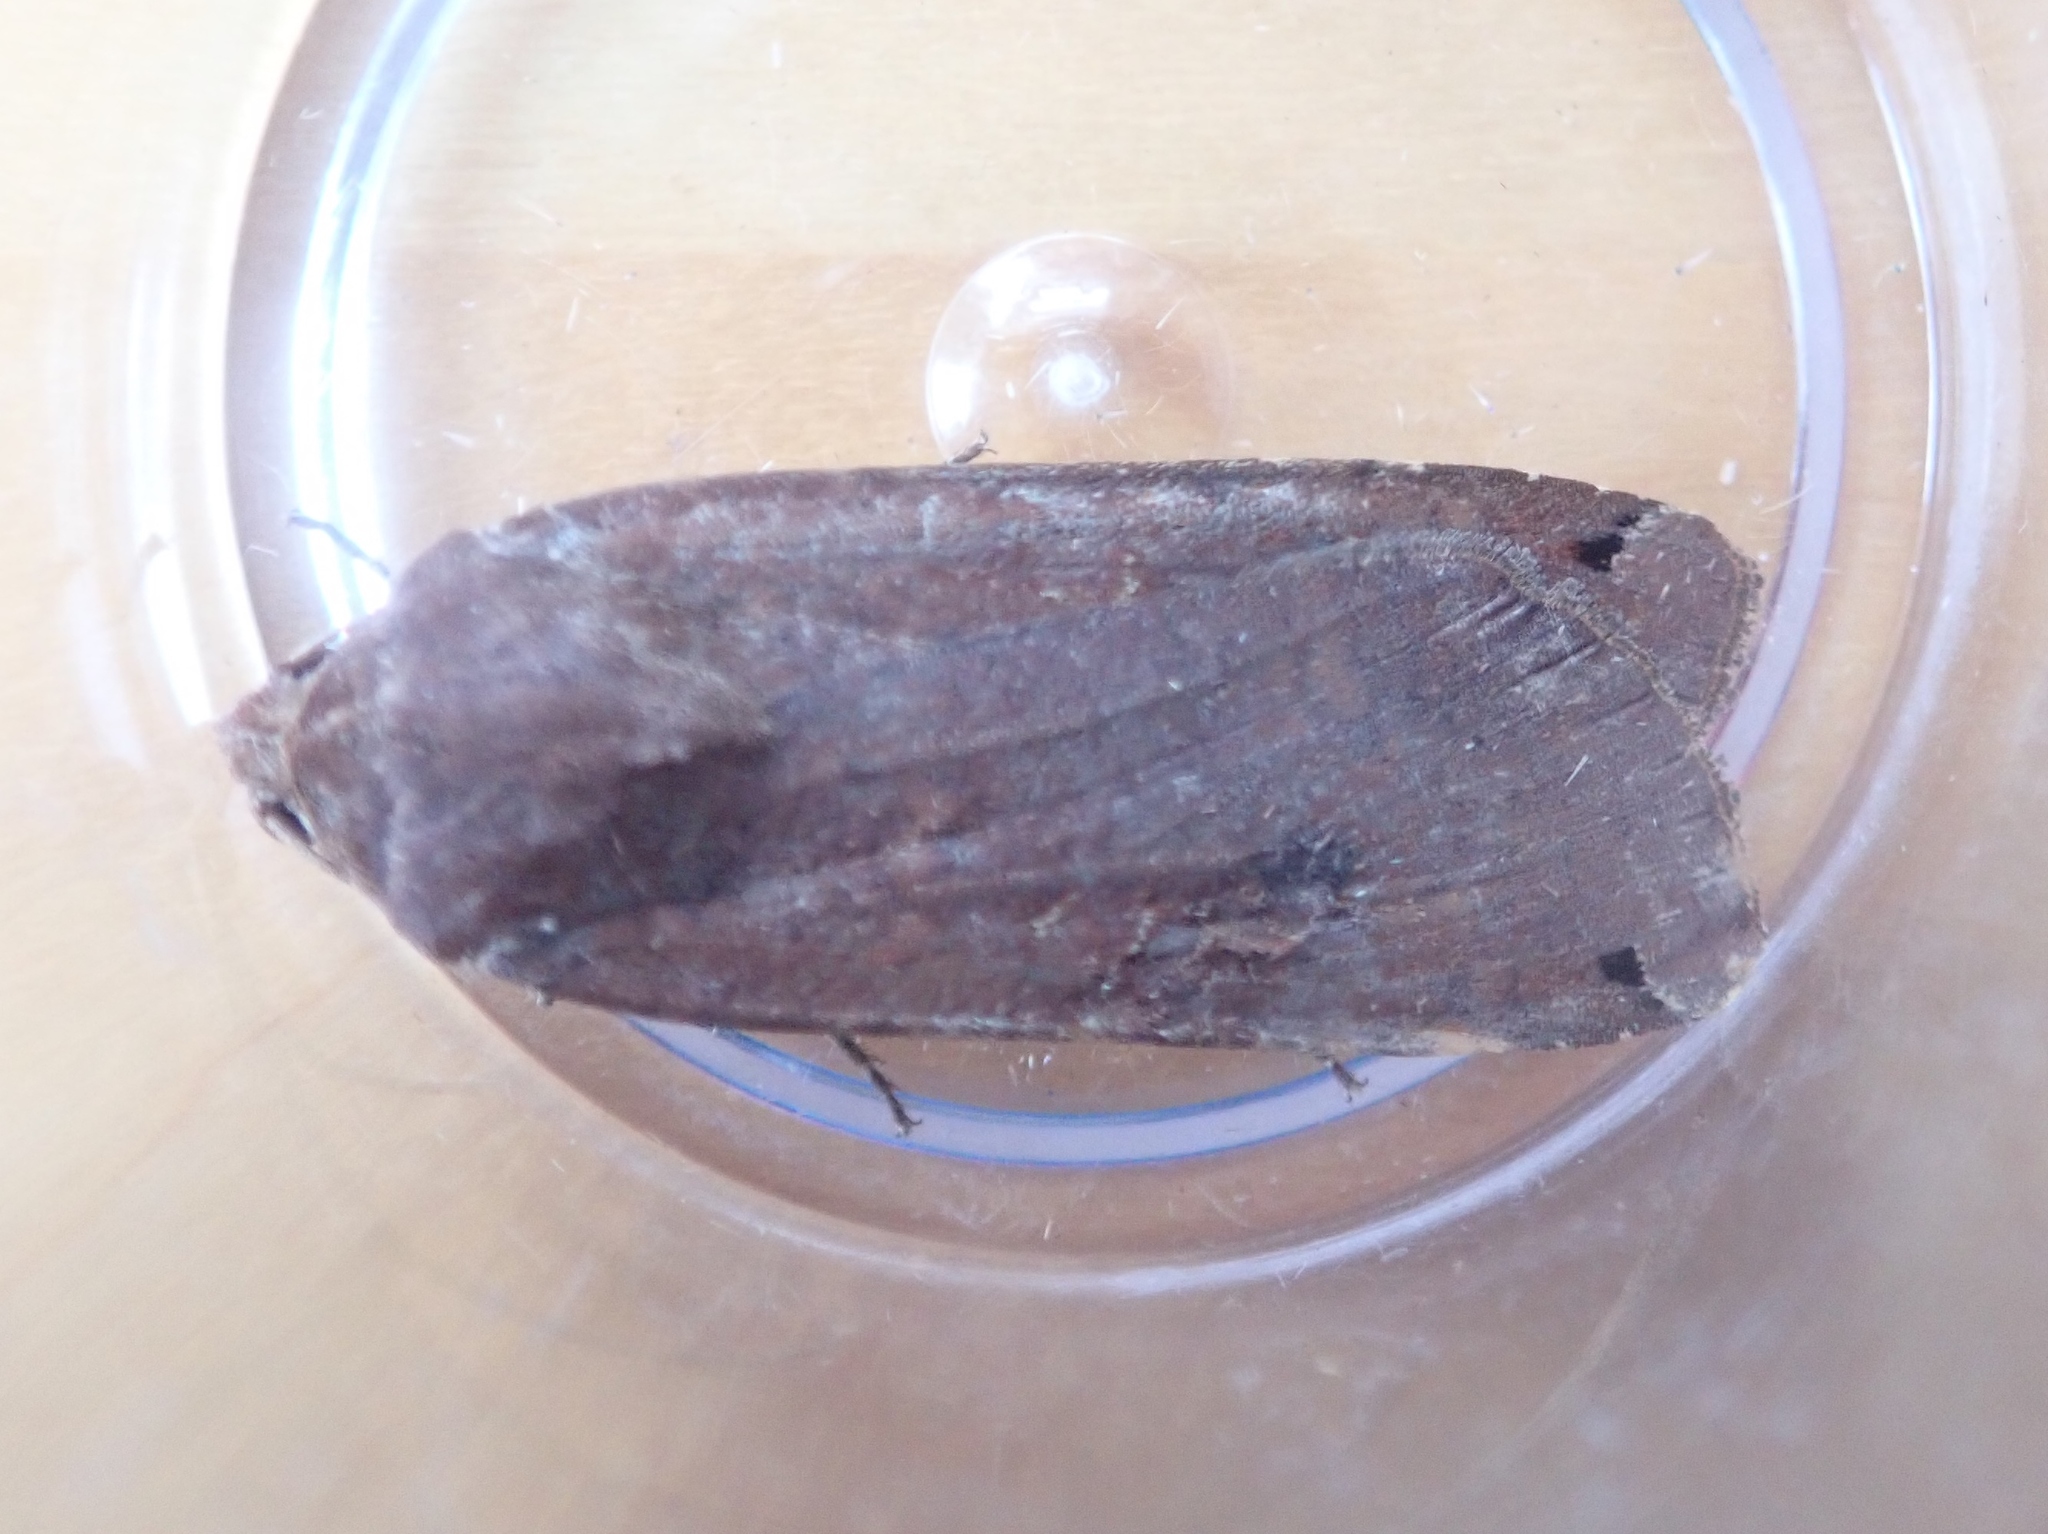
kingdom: Animalia
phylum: Arthropoda
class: Insecta
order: Lepidoptera
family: Noctuidae
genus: Noctua
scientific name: Noctua pronuba
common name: Large yellow underwing
